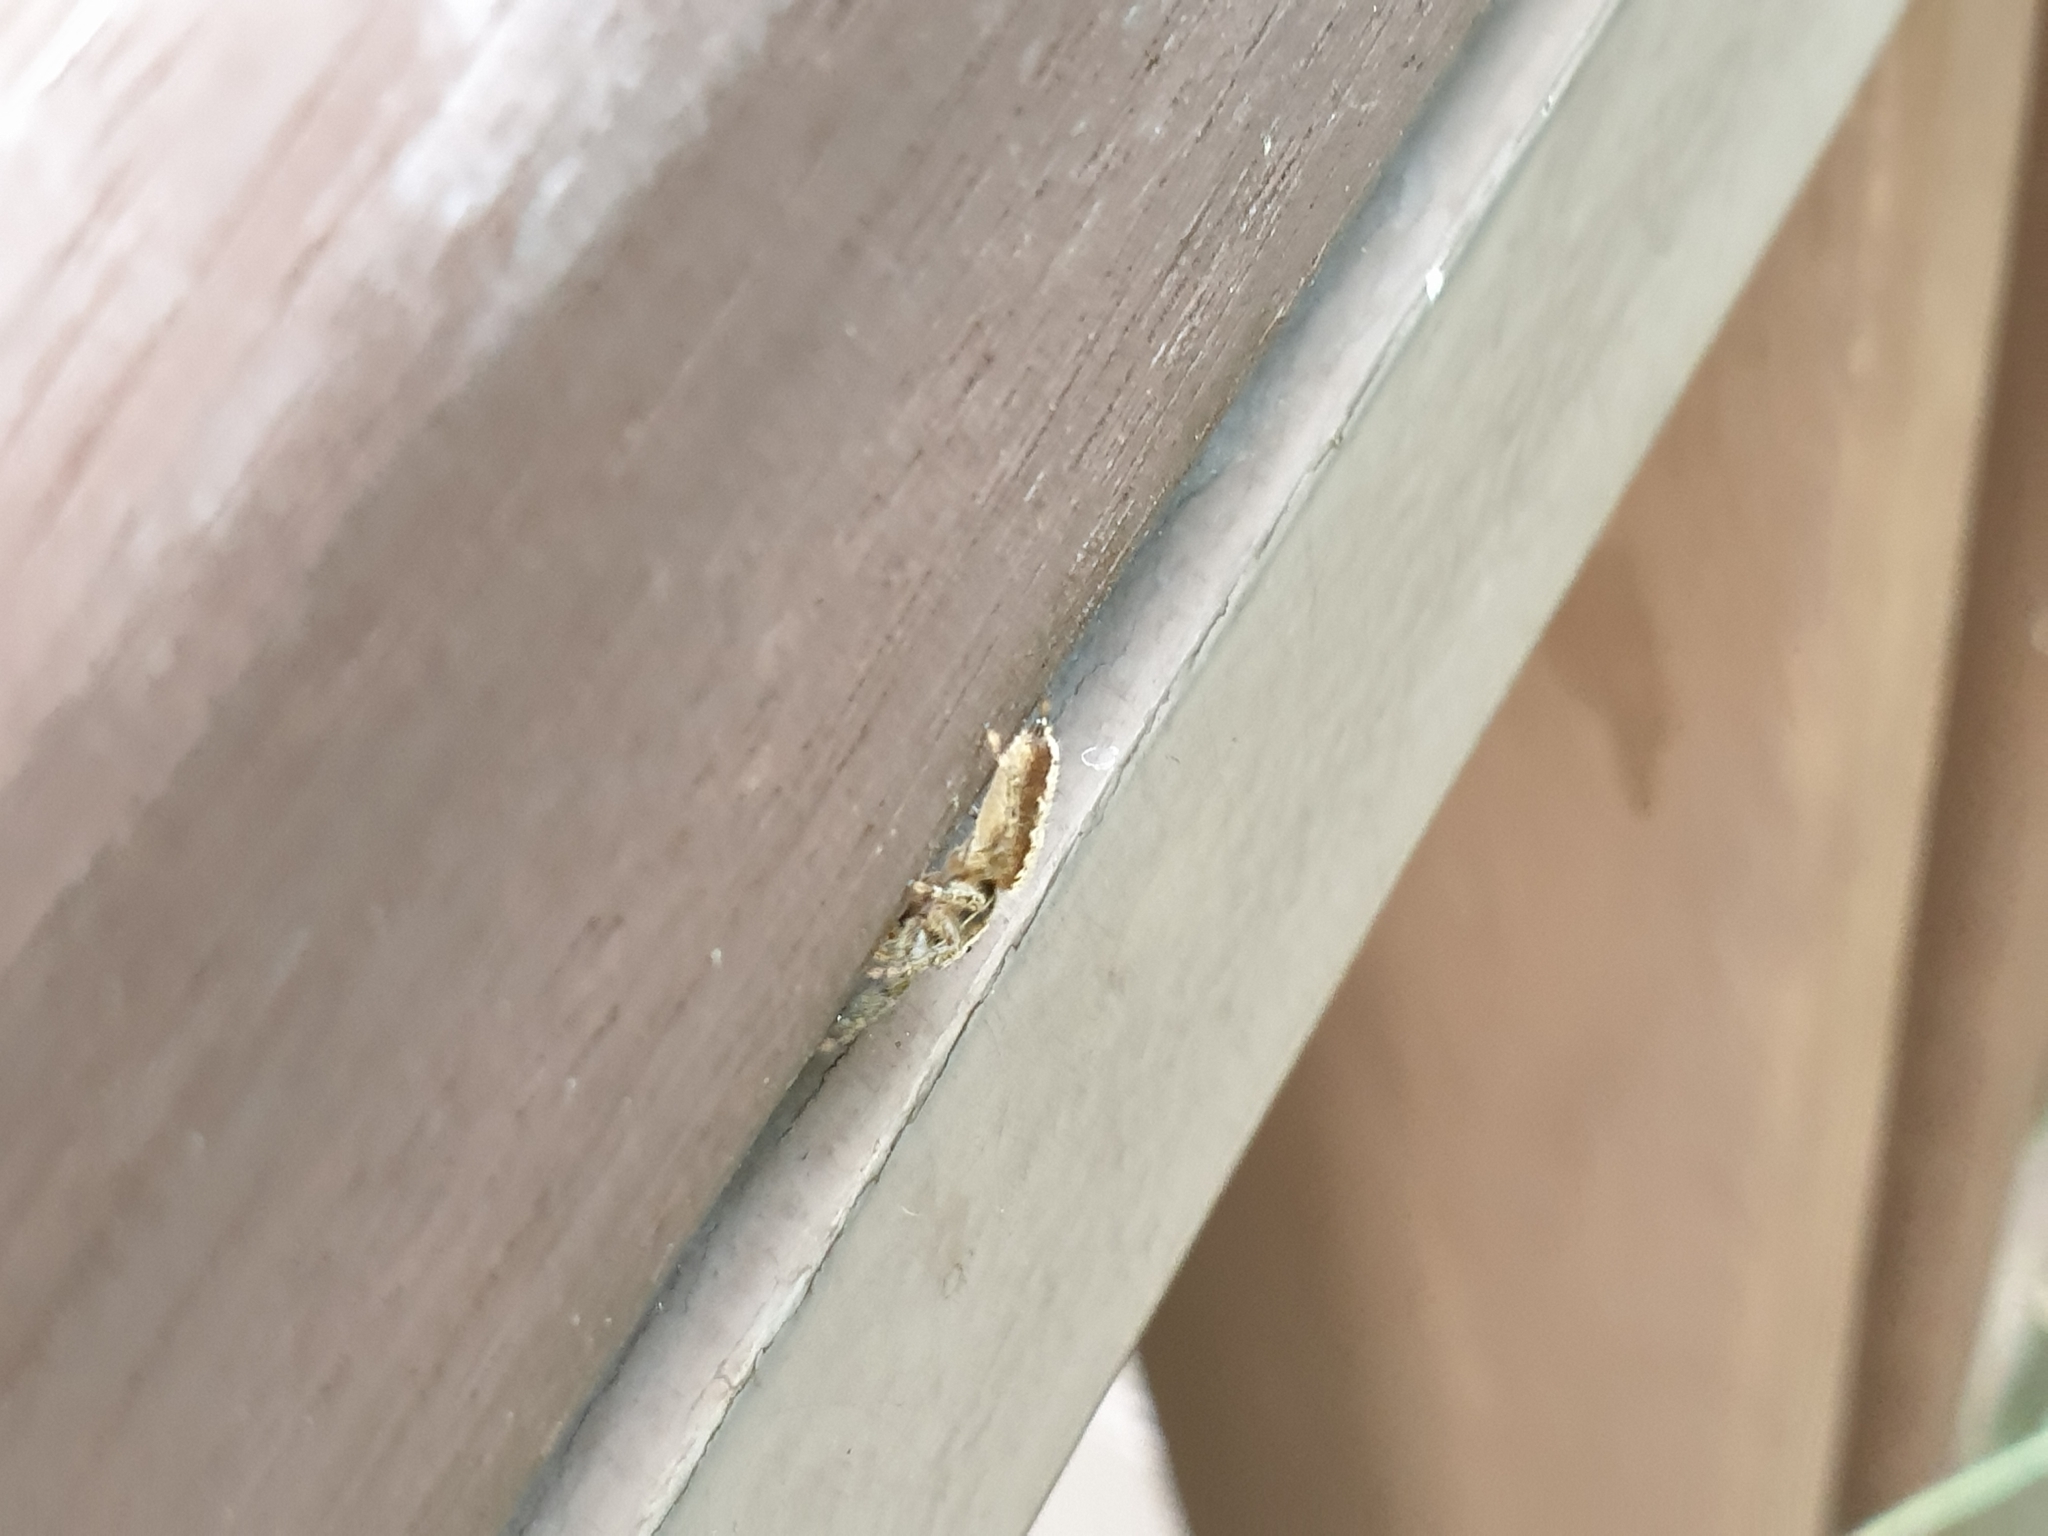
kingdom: Animalia
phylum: Arthropoda
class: Arachnida
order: Araneae
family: Salticidae
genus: Marpissa
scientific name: Marpissa milleri
